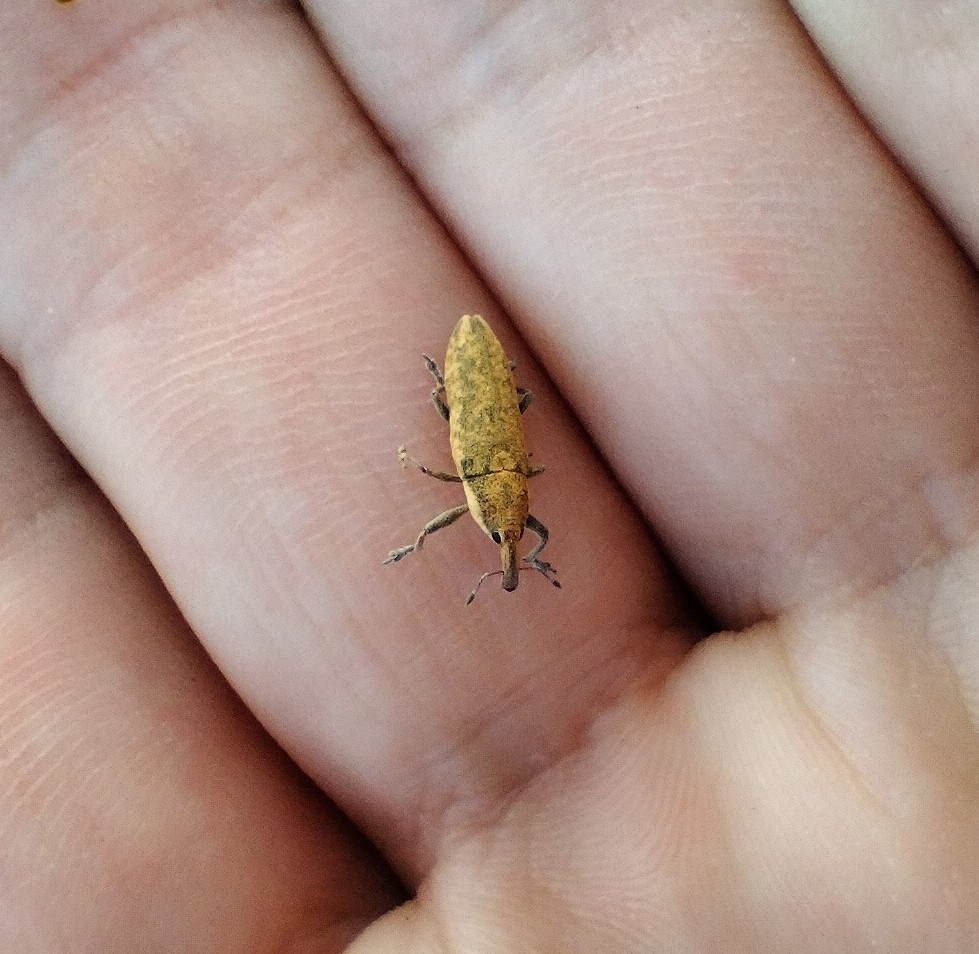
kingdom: Animalia
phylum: Arthropoda
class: Insecta
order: Coleoptera
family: Curculionidae
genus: Lixus
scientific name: Lixus subtilis
